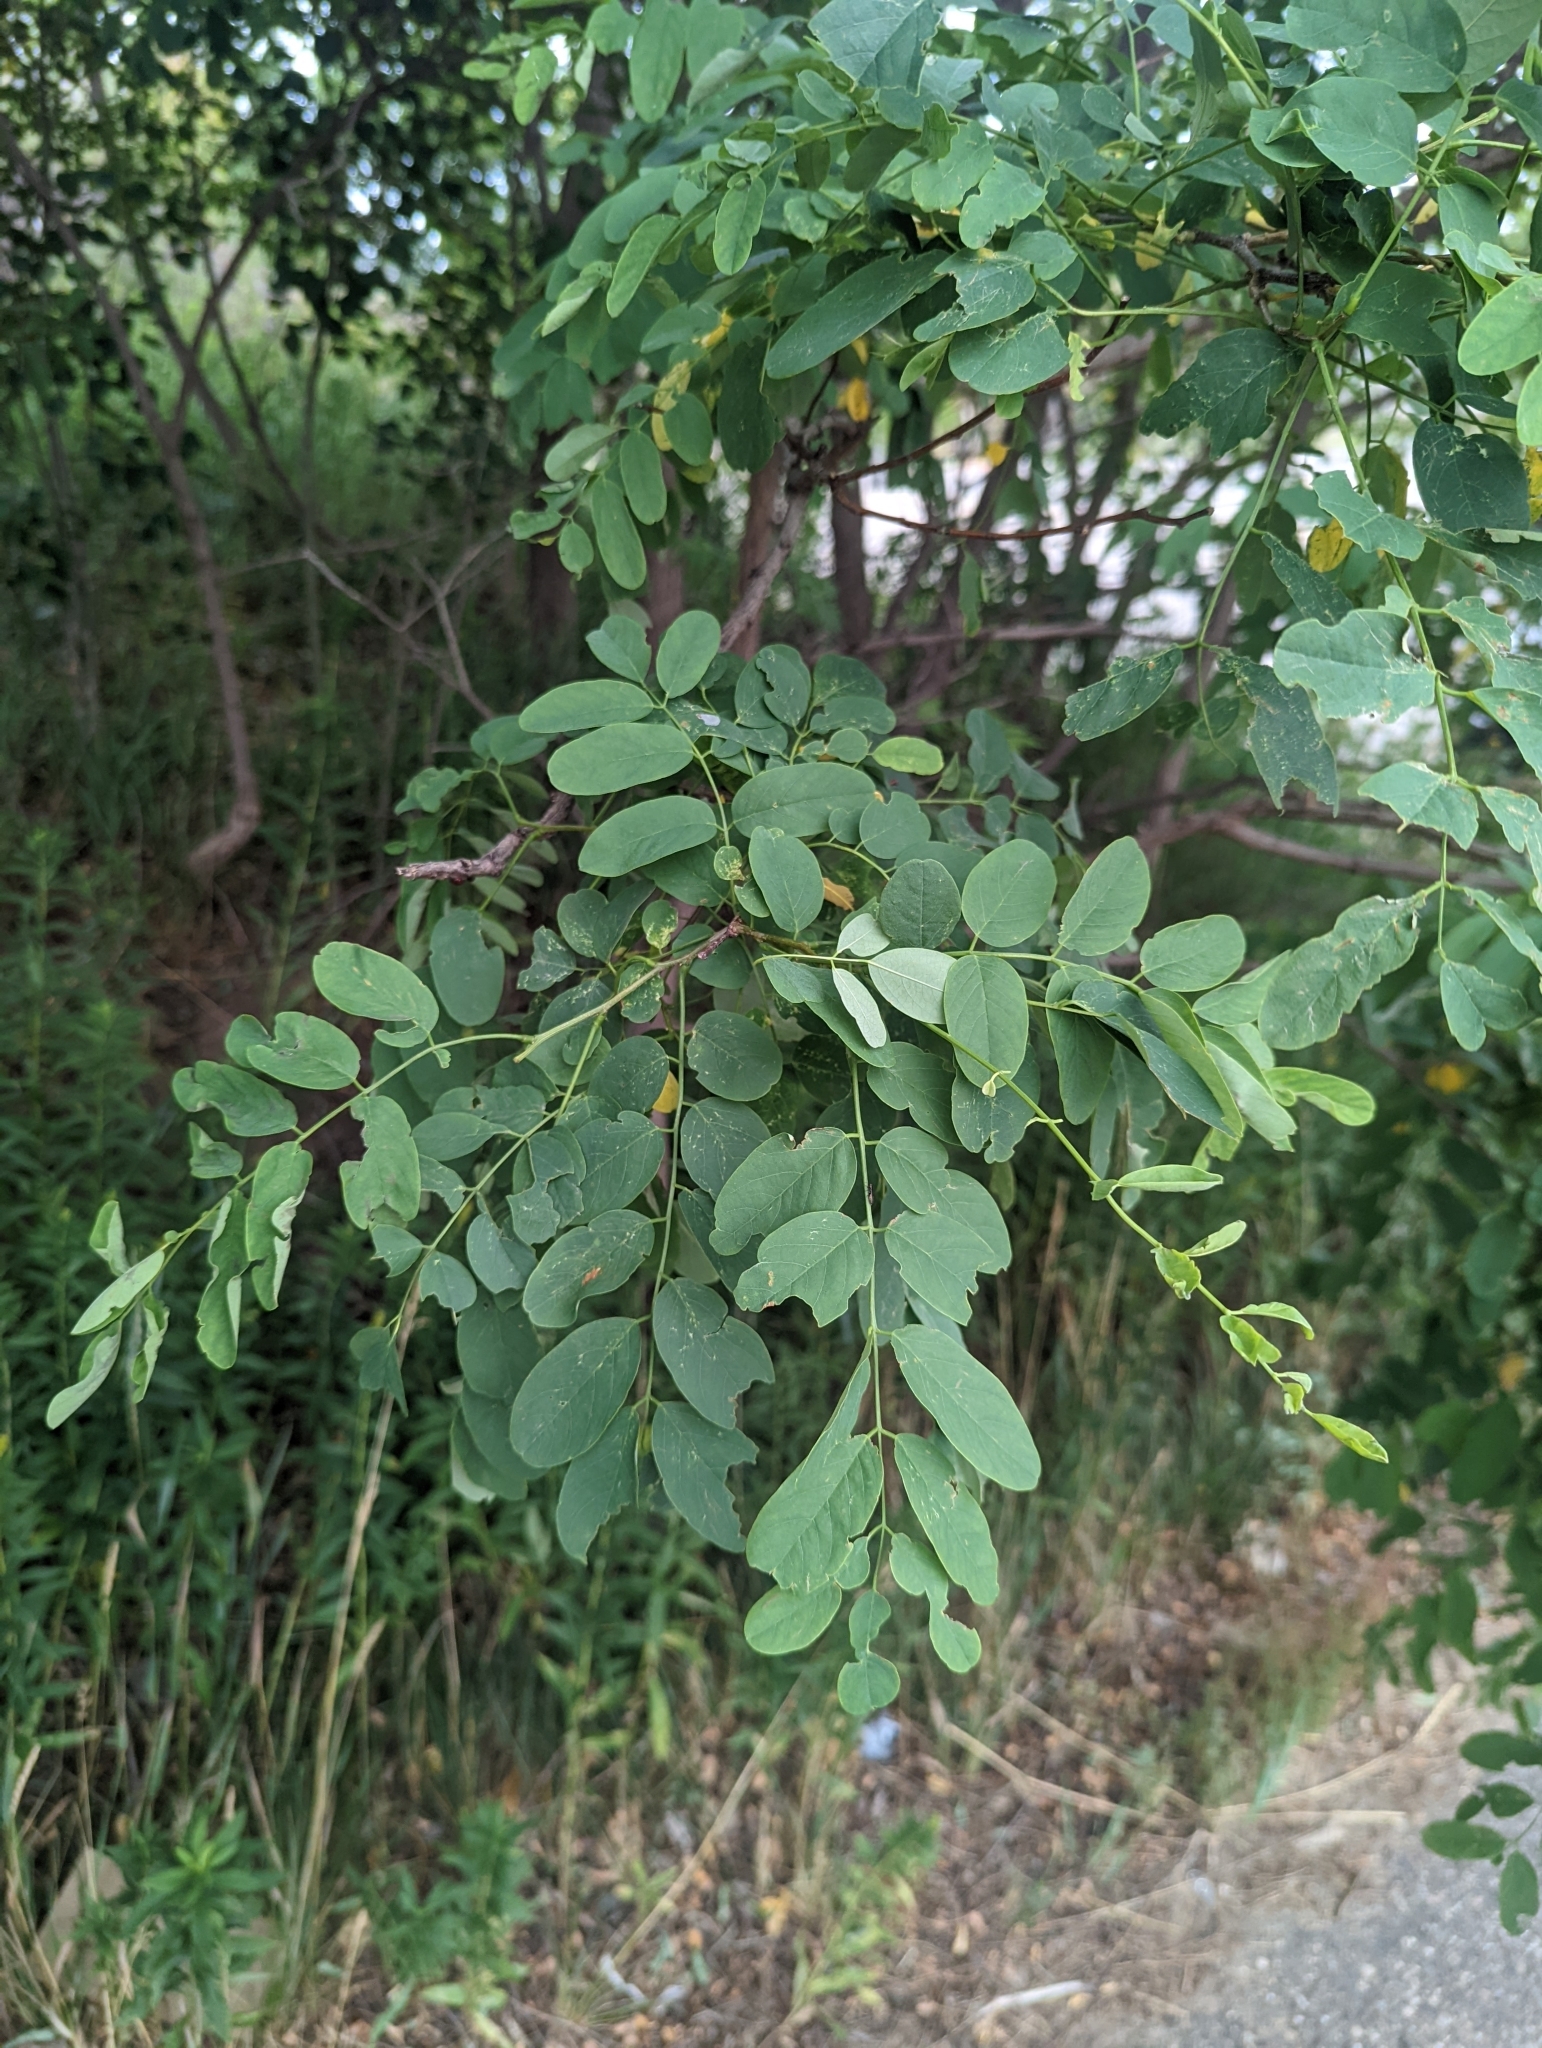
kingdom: Plantae
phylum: Tracheophyta
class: Magnoliopsida
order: Fabales
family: Fabaceae
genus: Robinia
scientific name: Robinia pseudoacacia
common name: Black locust
